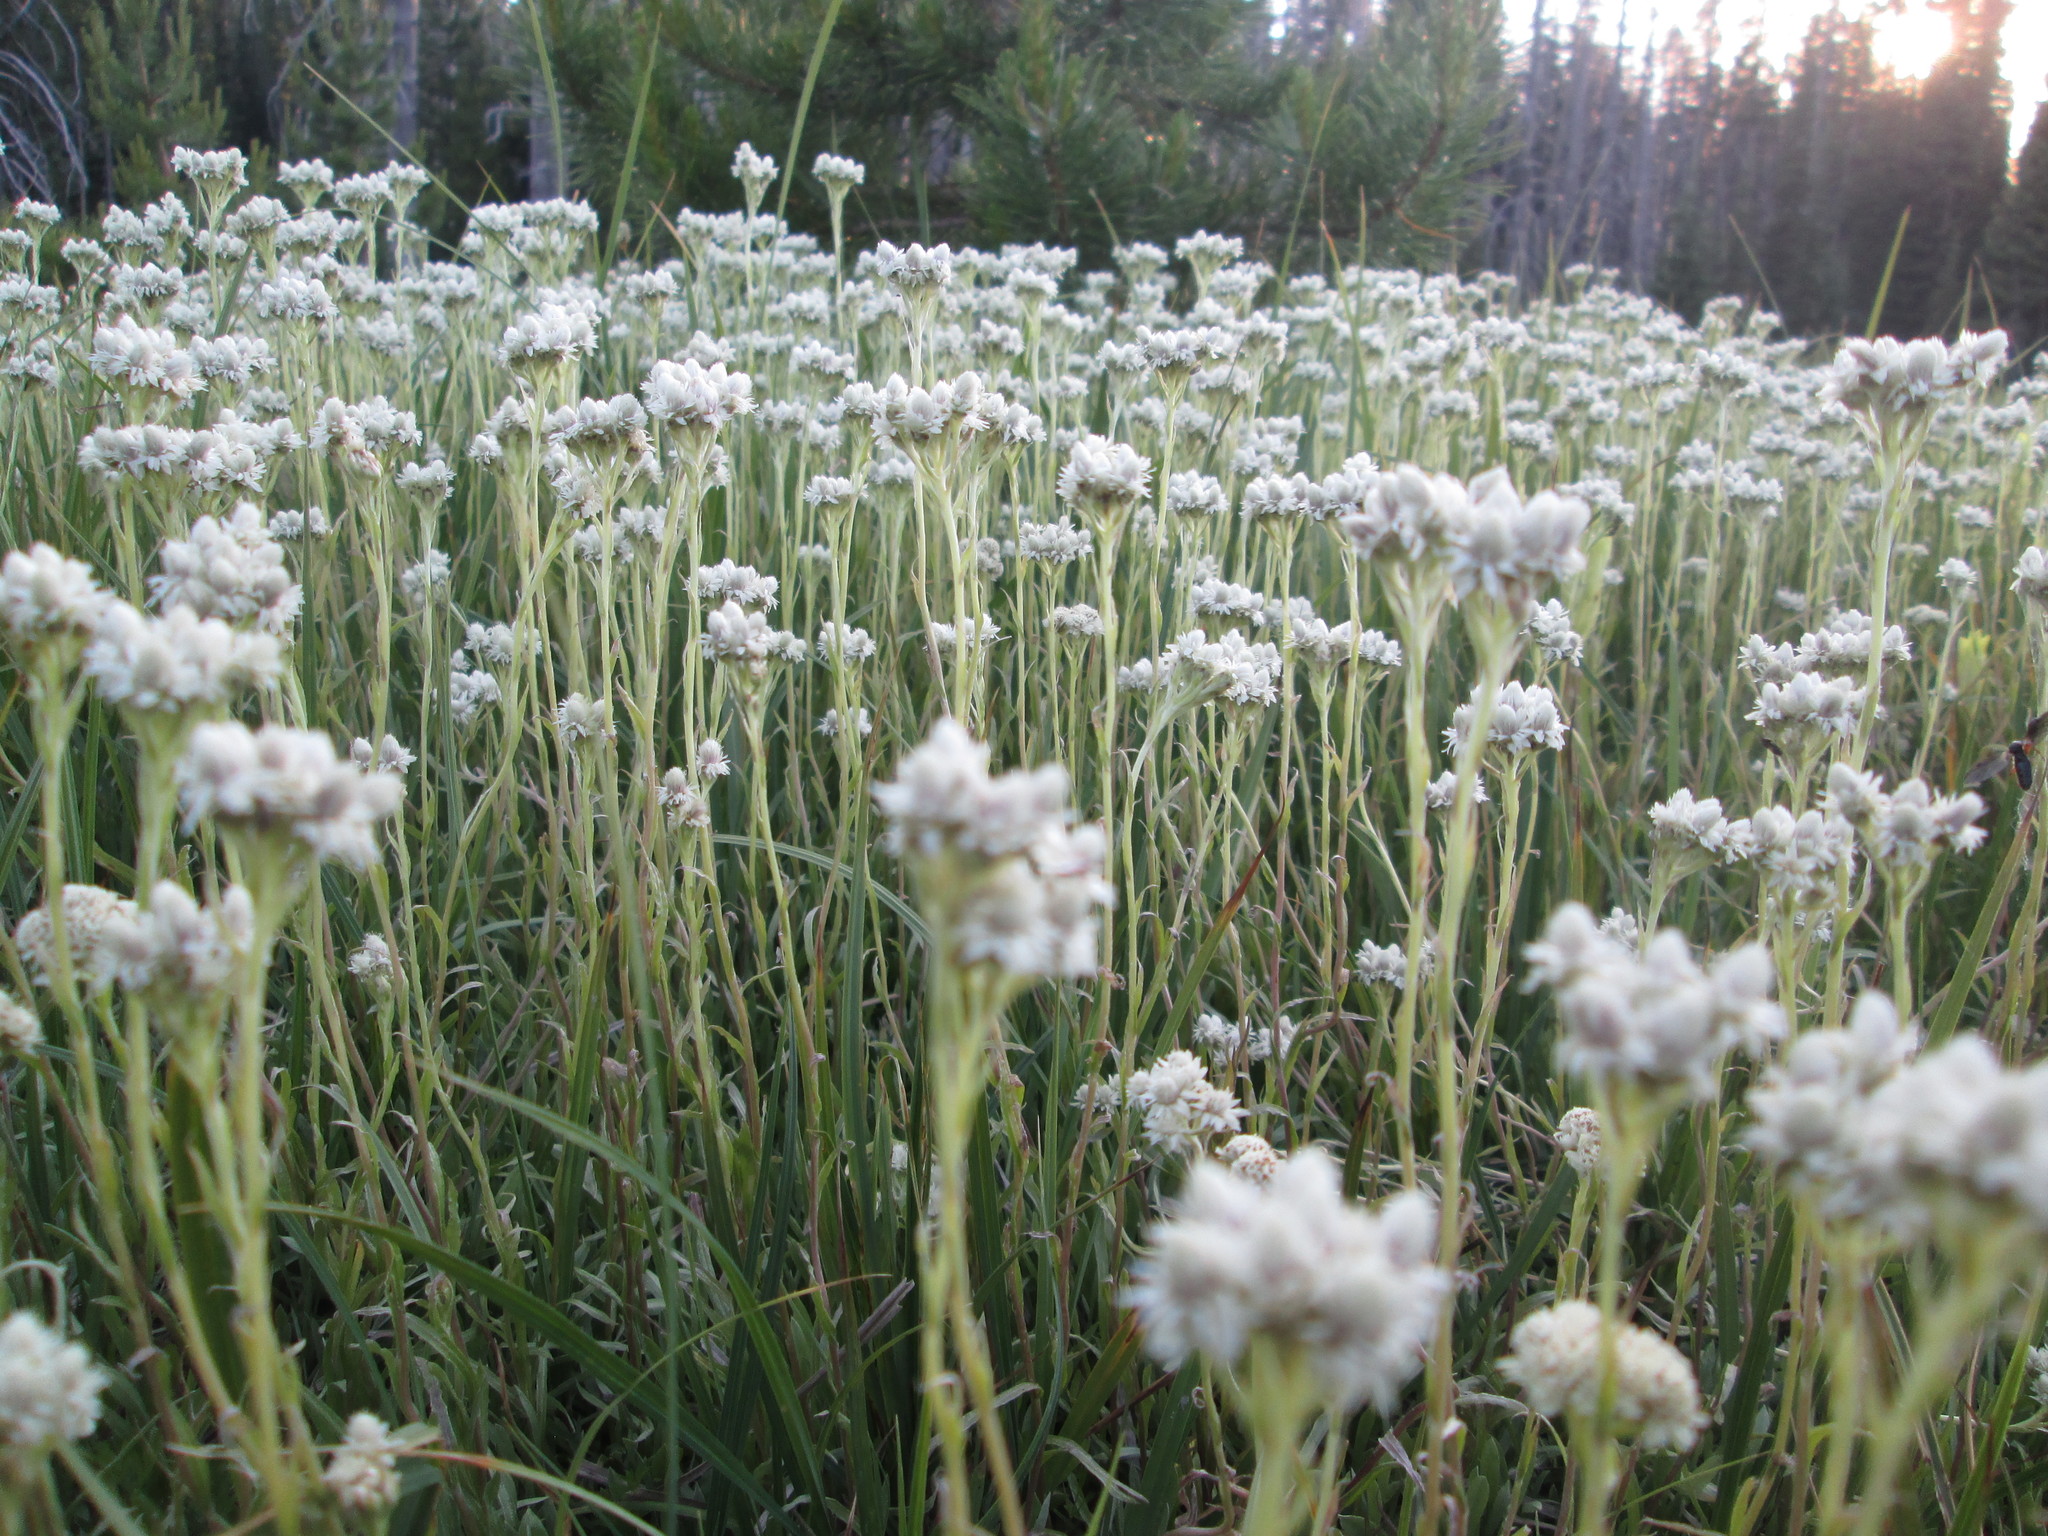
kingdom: Plantae
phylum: Tracheophyta
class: Magnoliopsida
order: Asterales
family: Asteraceae
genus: Antennaria
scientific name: Antennaria corymbosa
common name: Meadow pussytoes
